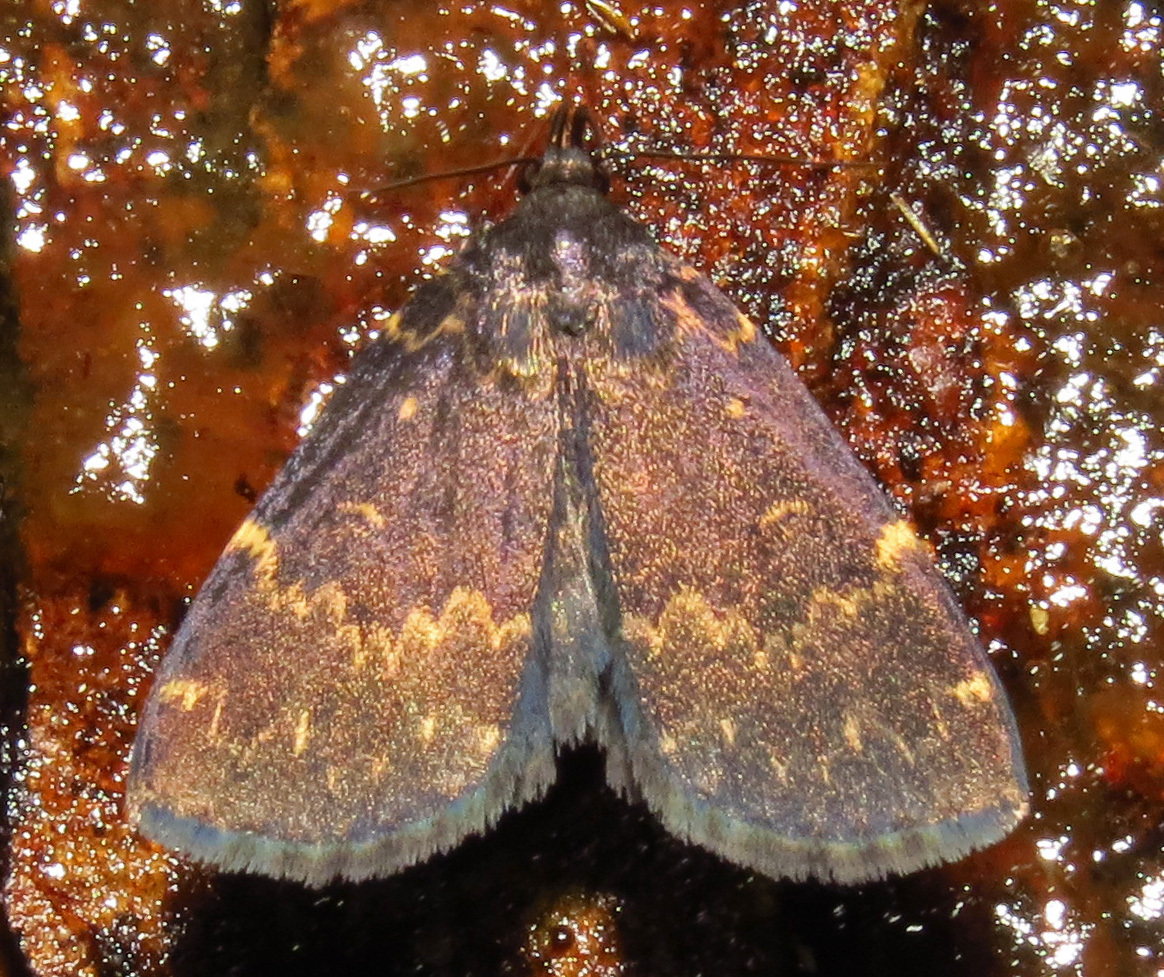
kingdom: Animalia
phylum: Arthropoda
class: Insecta
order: Lepidoptera
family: Erebidae
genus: Idia
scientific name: Idia lubricalis
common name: Twin-striped tabby
